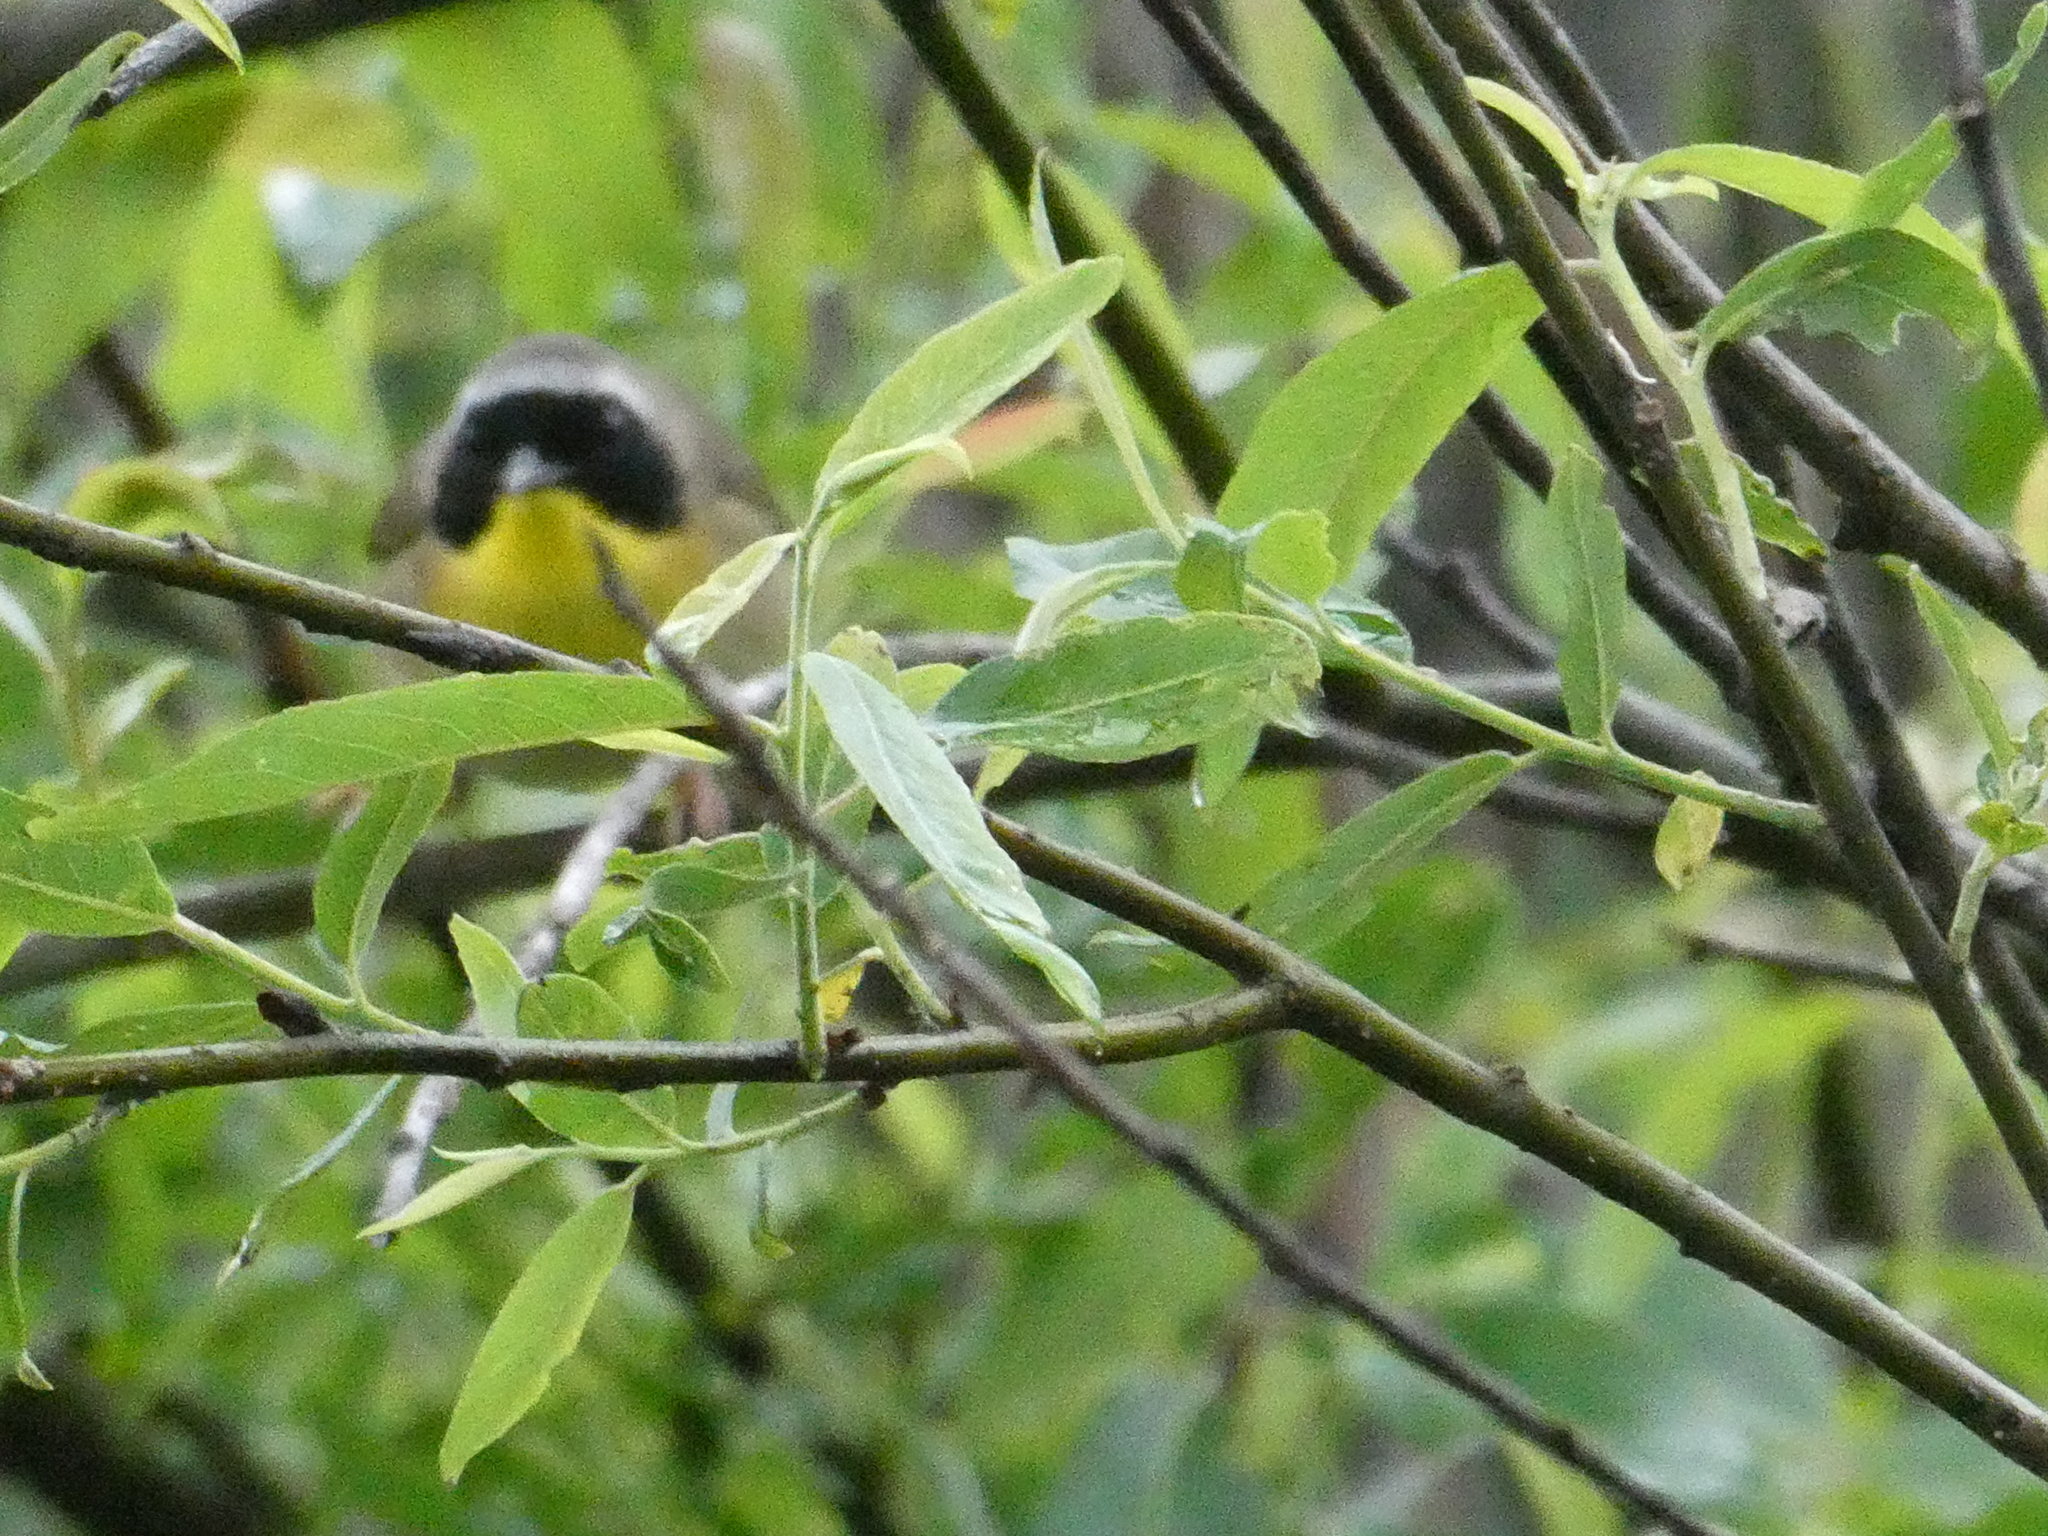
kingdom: Animalia
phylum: Chordata
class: Aves
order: Passeriformes
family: Parulidae
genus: Geothlypis
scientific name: Geothlypis trichas
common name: Common yellowthroat
